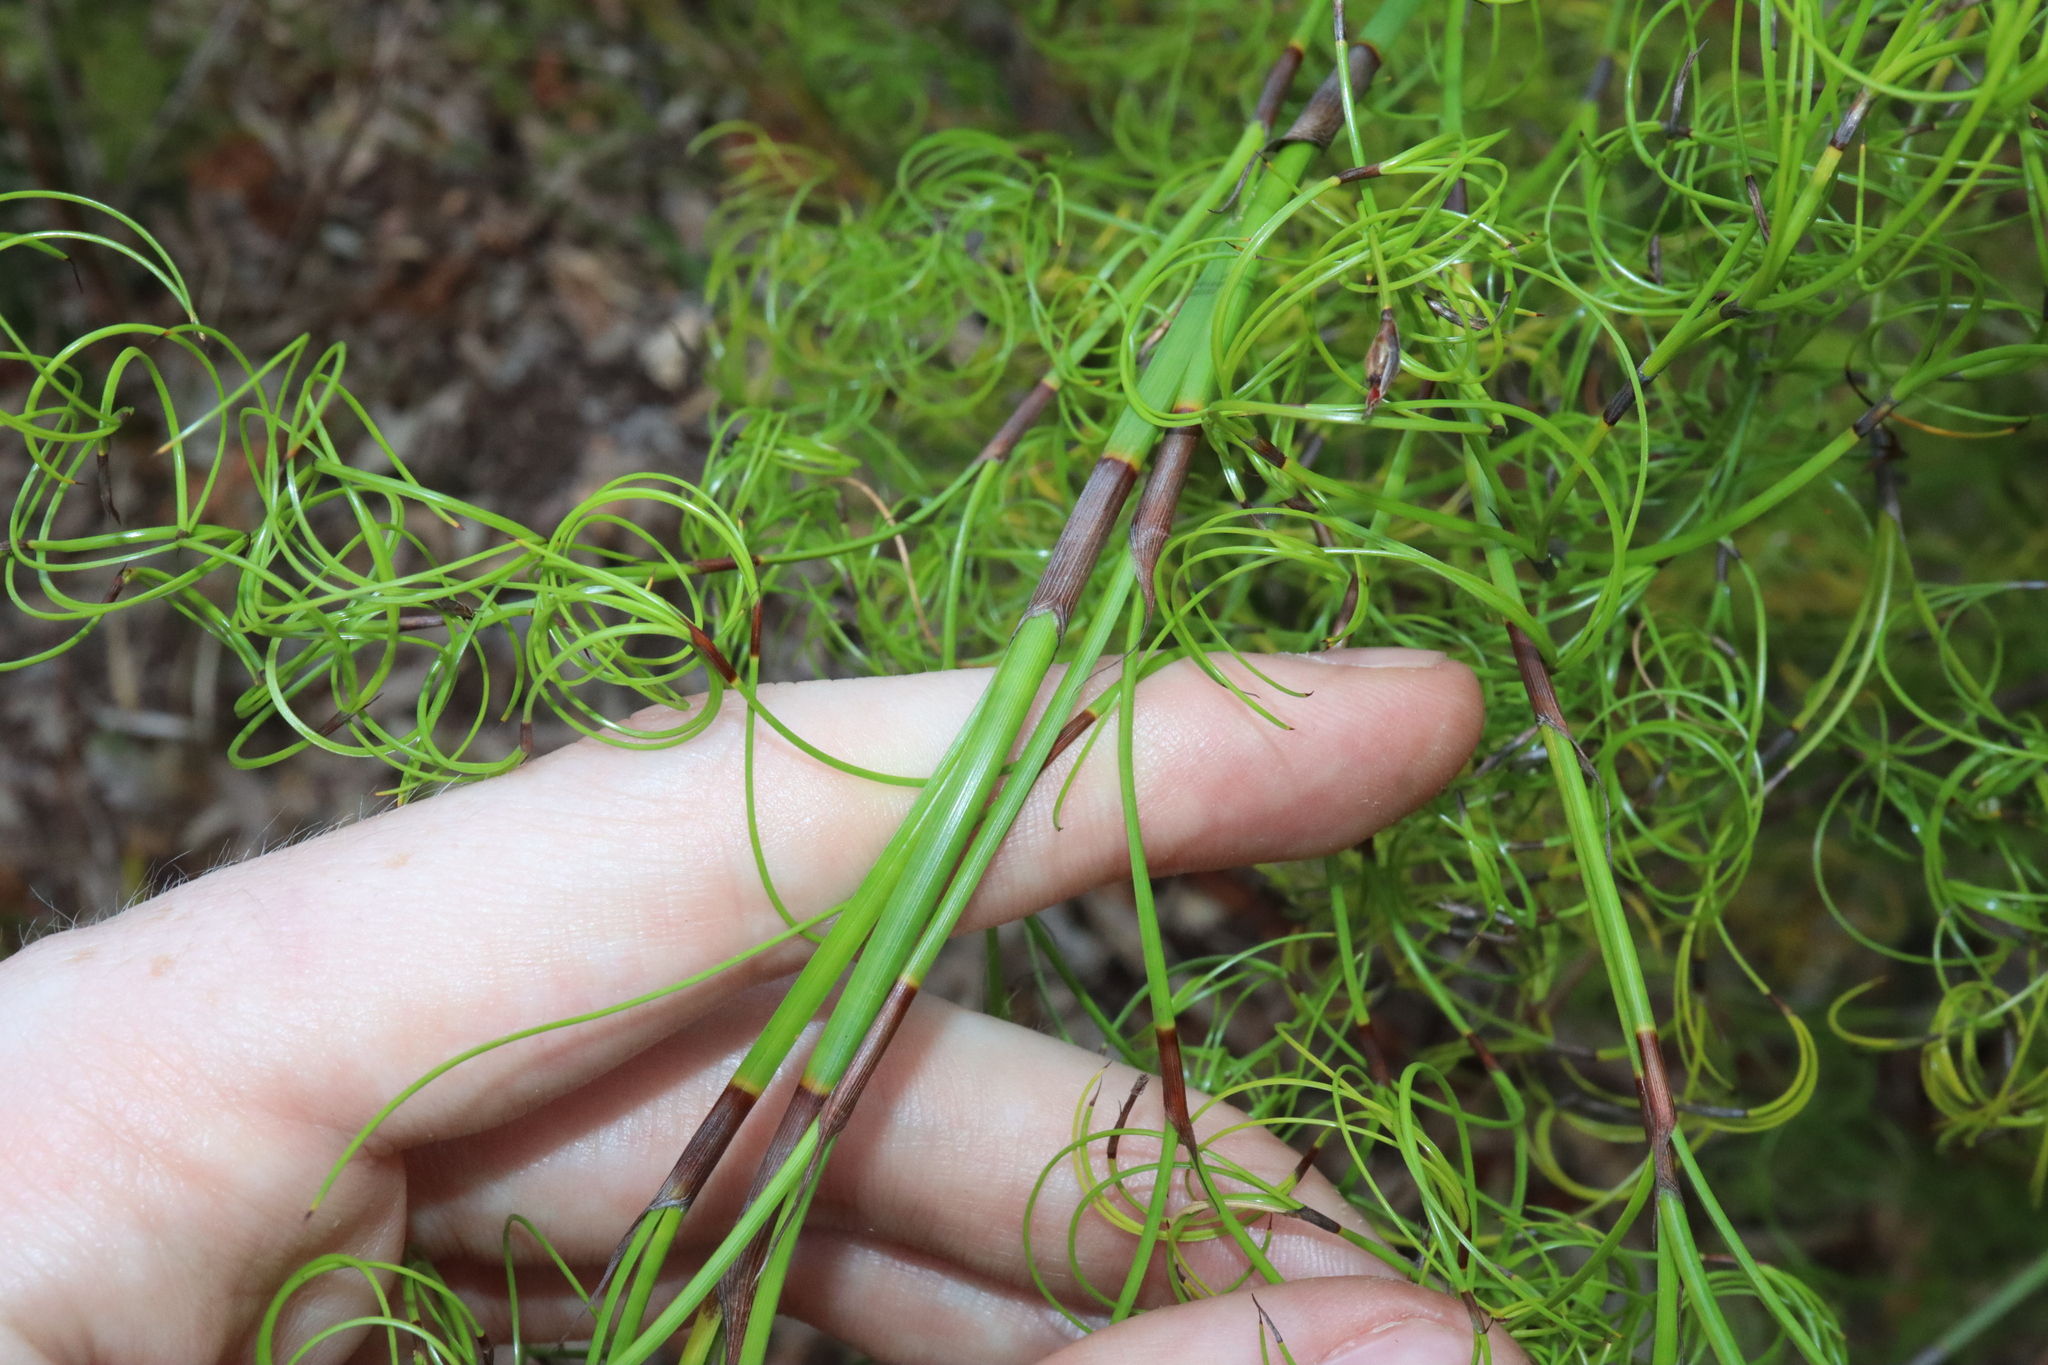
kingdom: Plantae
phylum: Tracheophyta
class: Liliopsida
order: Poales
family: Cyperaceae
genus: Caustis
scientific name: Caustis flexuosa
